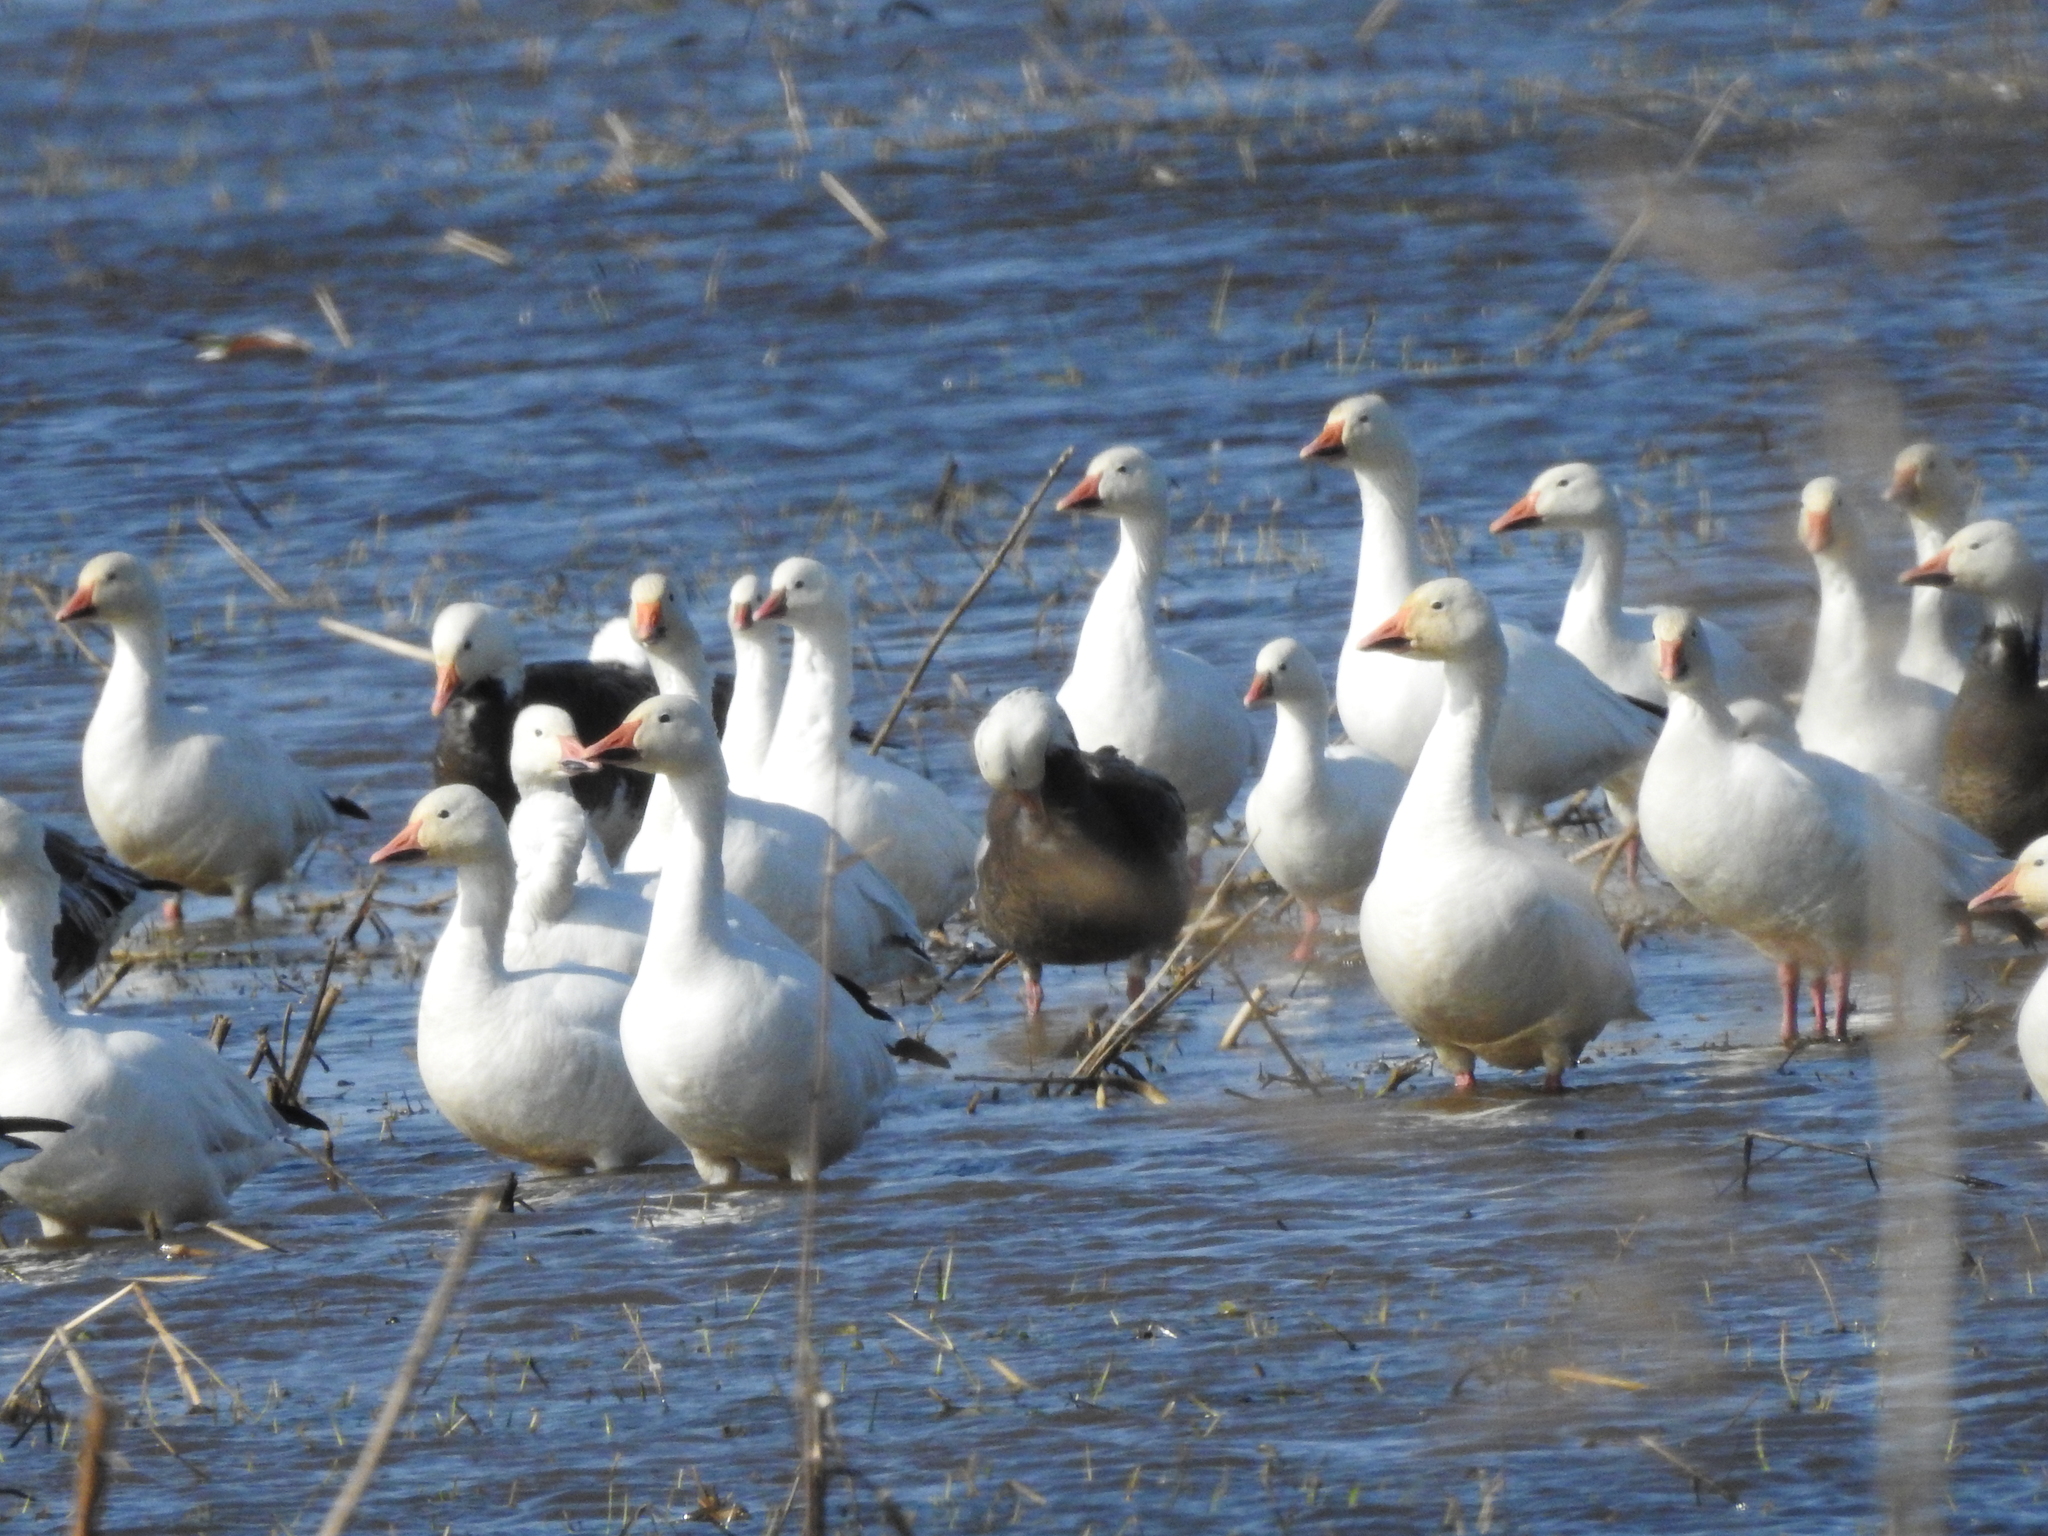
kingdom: Animalia
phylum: Chordata
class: Aves
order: Anseriformes
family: Anatidae
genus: Anser
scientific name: Anser rossii
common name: Ross's goose
